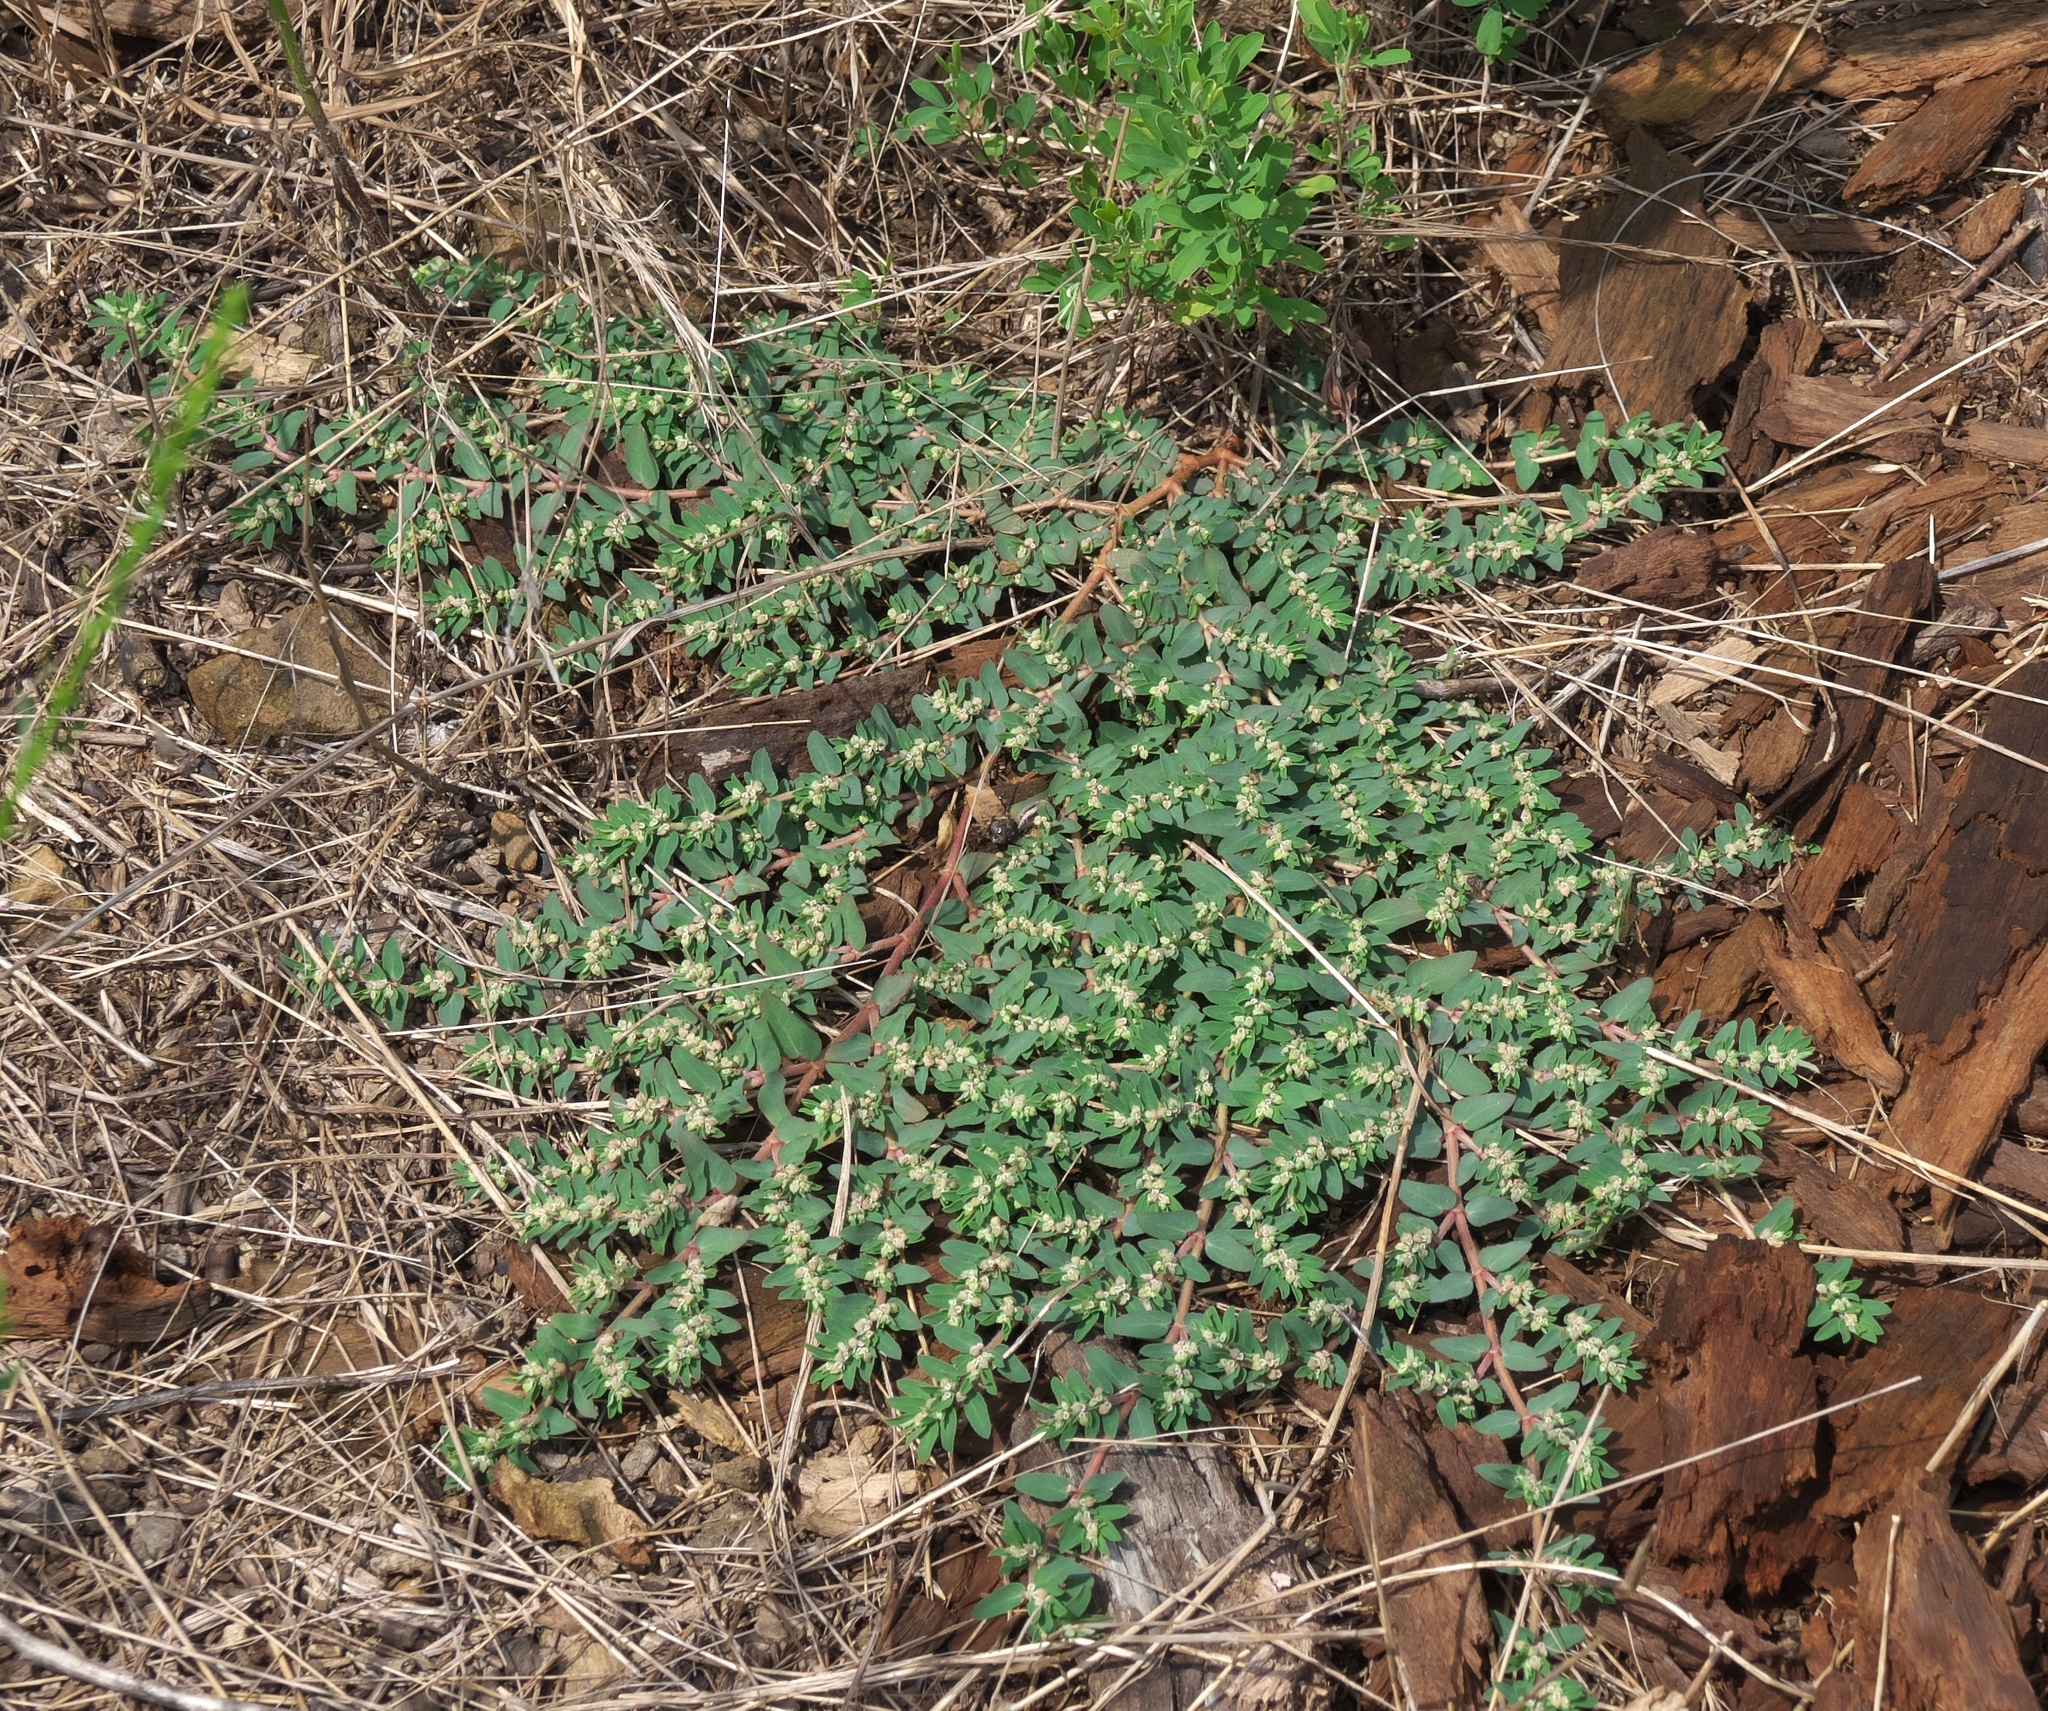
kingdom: Plantae
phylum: Tracheophyta
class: Magnoliopsida
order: Malpighiales
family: Euphorbiaceae
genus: Euphorbia
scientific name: Euphorbia maculata
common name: Spotted spurge
